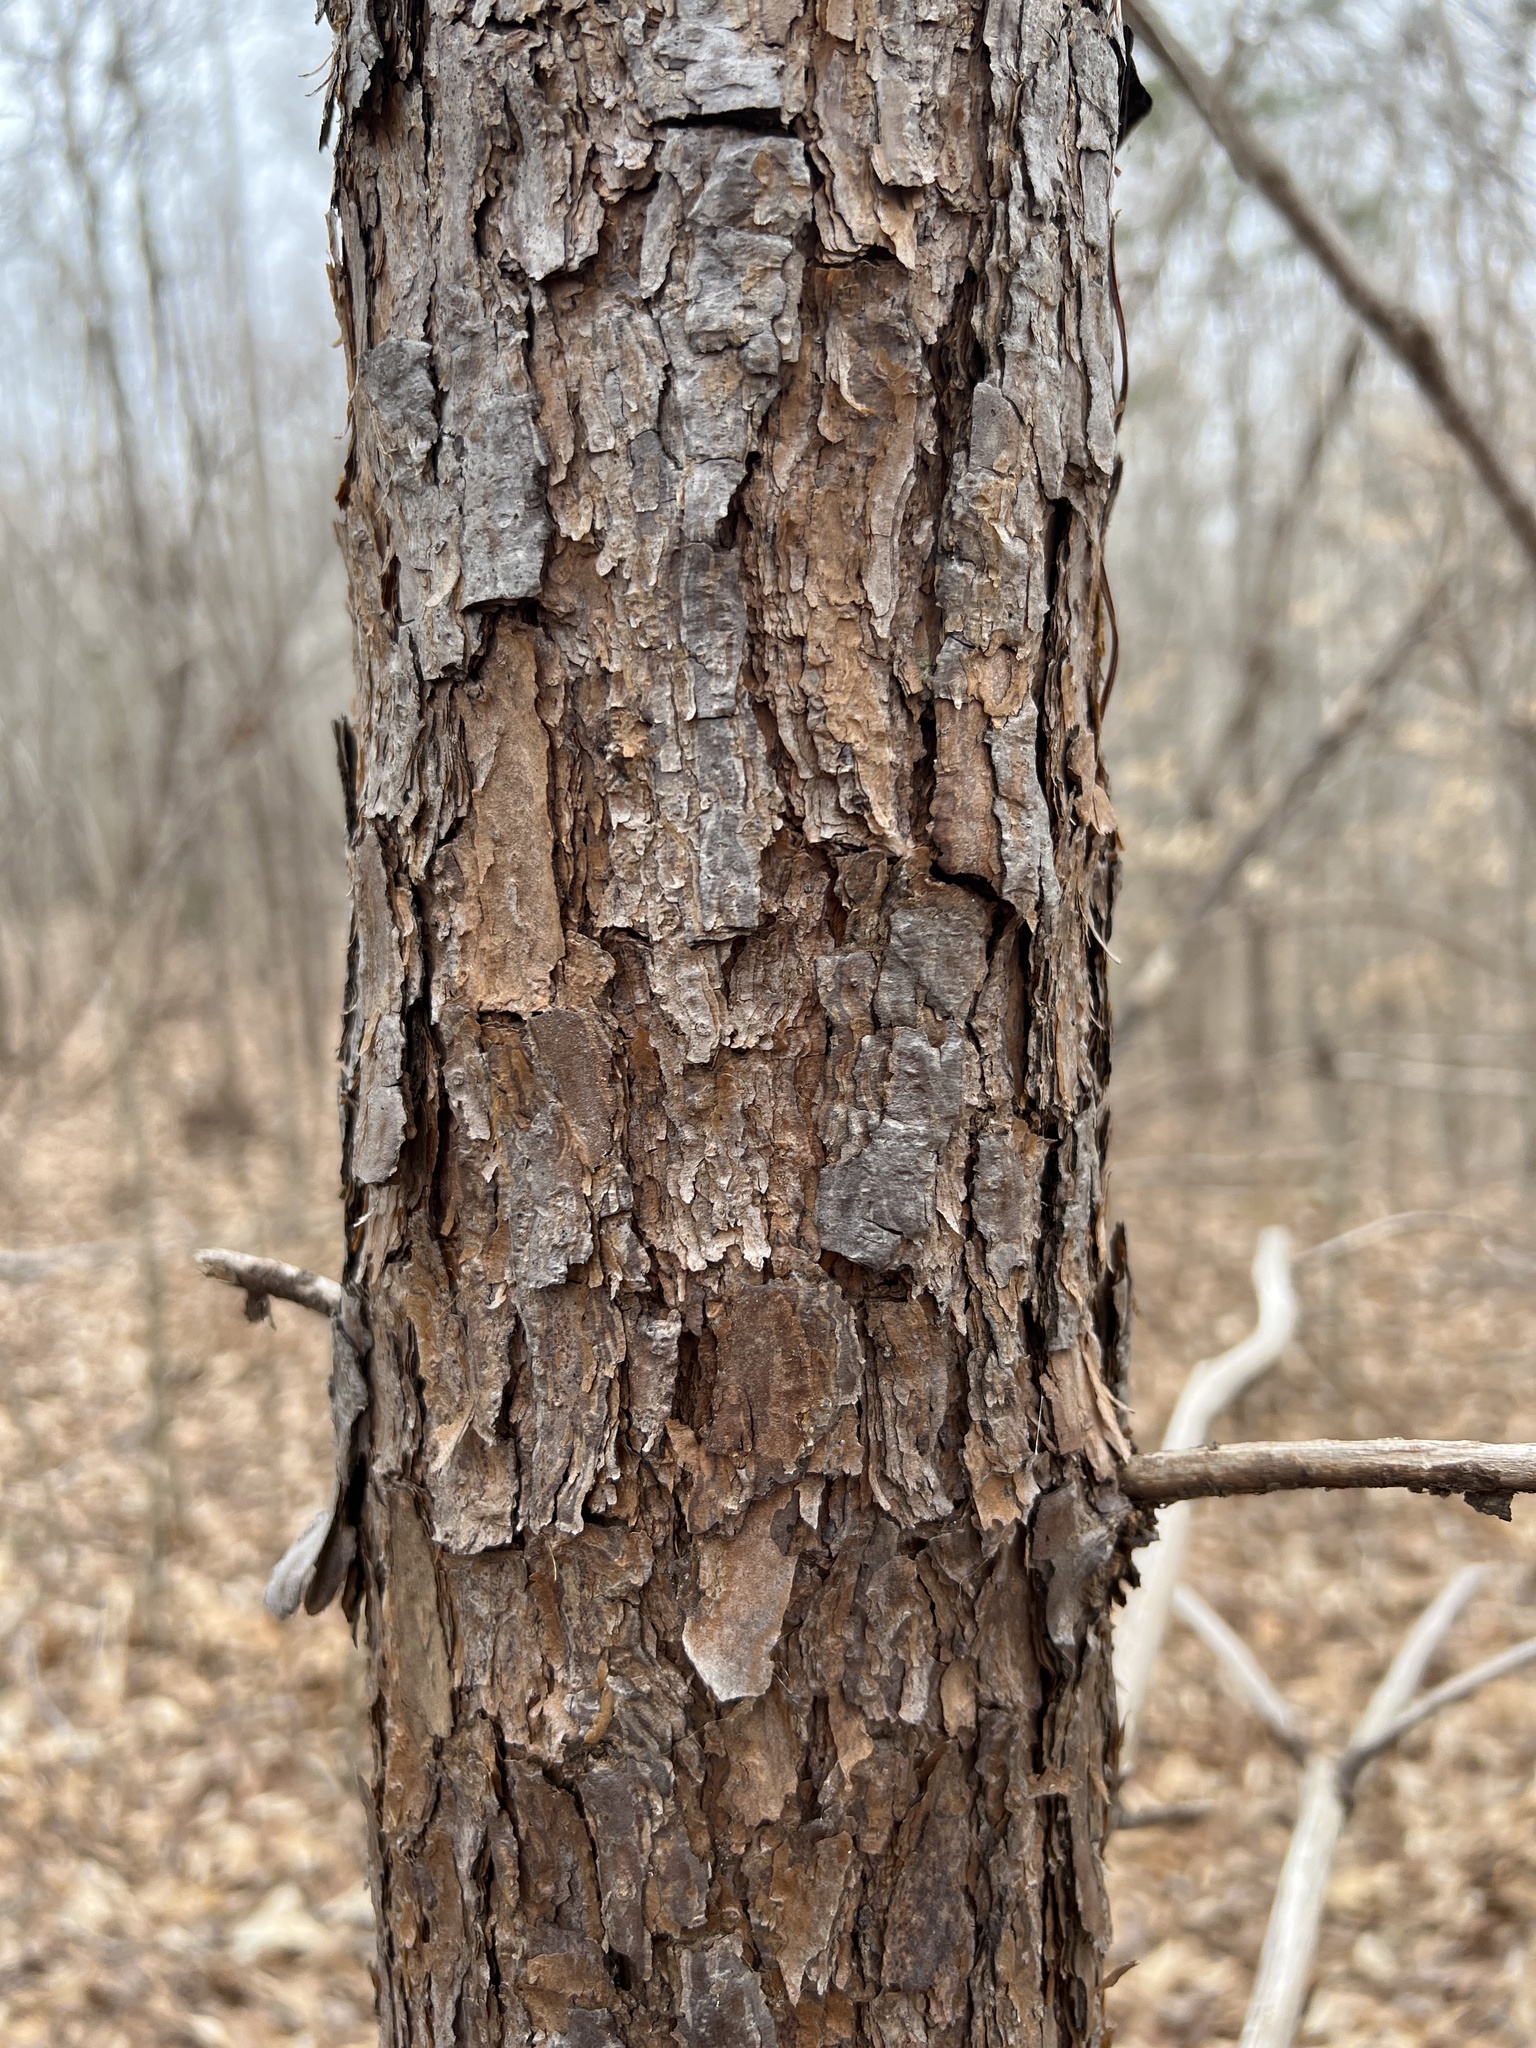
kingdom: Plantae
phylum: Tracheophyta
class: Pinopsida
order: Pinales
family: Pinaceae
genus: Pinus
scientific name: Pinus virginiana
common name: Scrub pine
